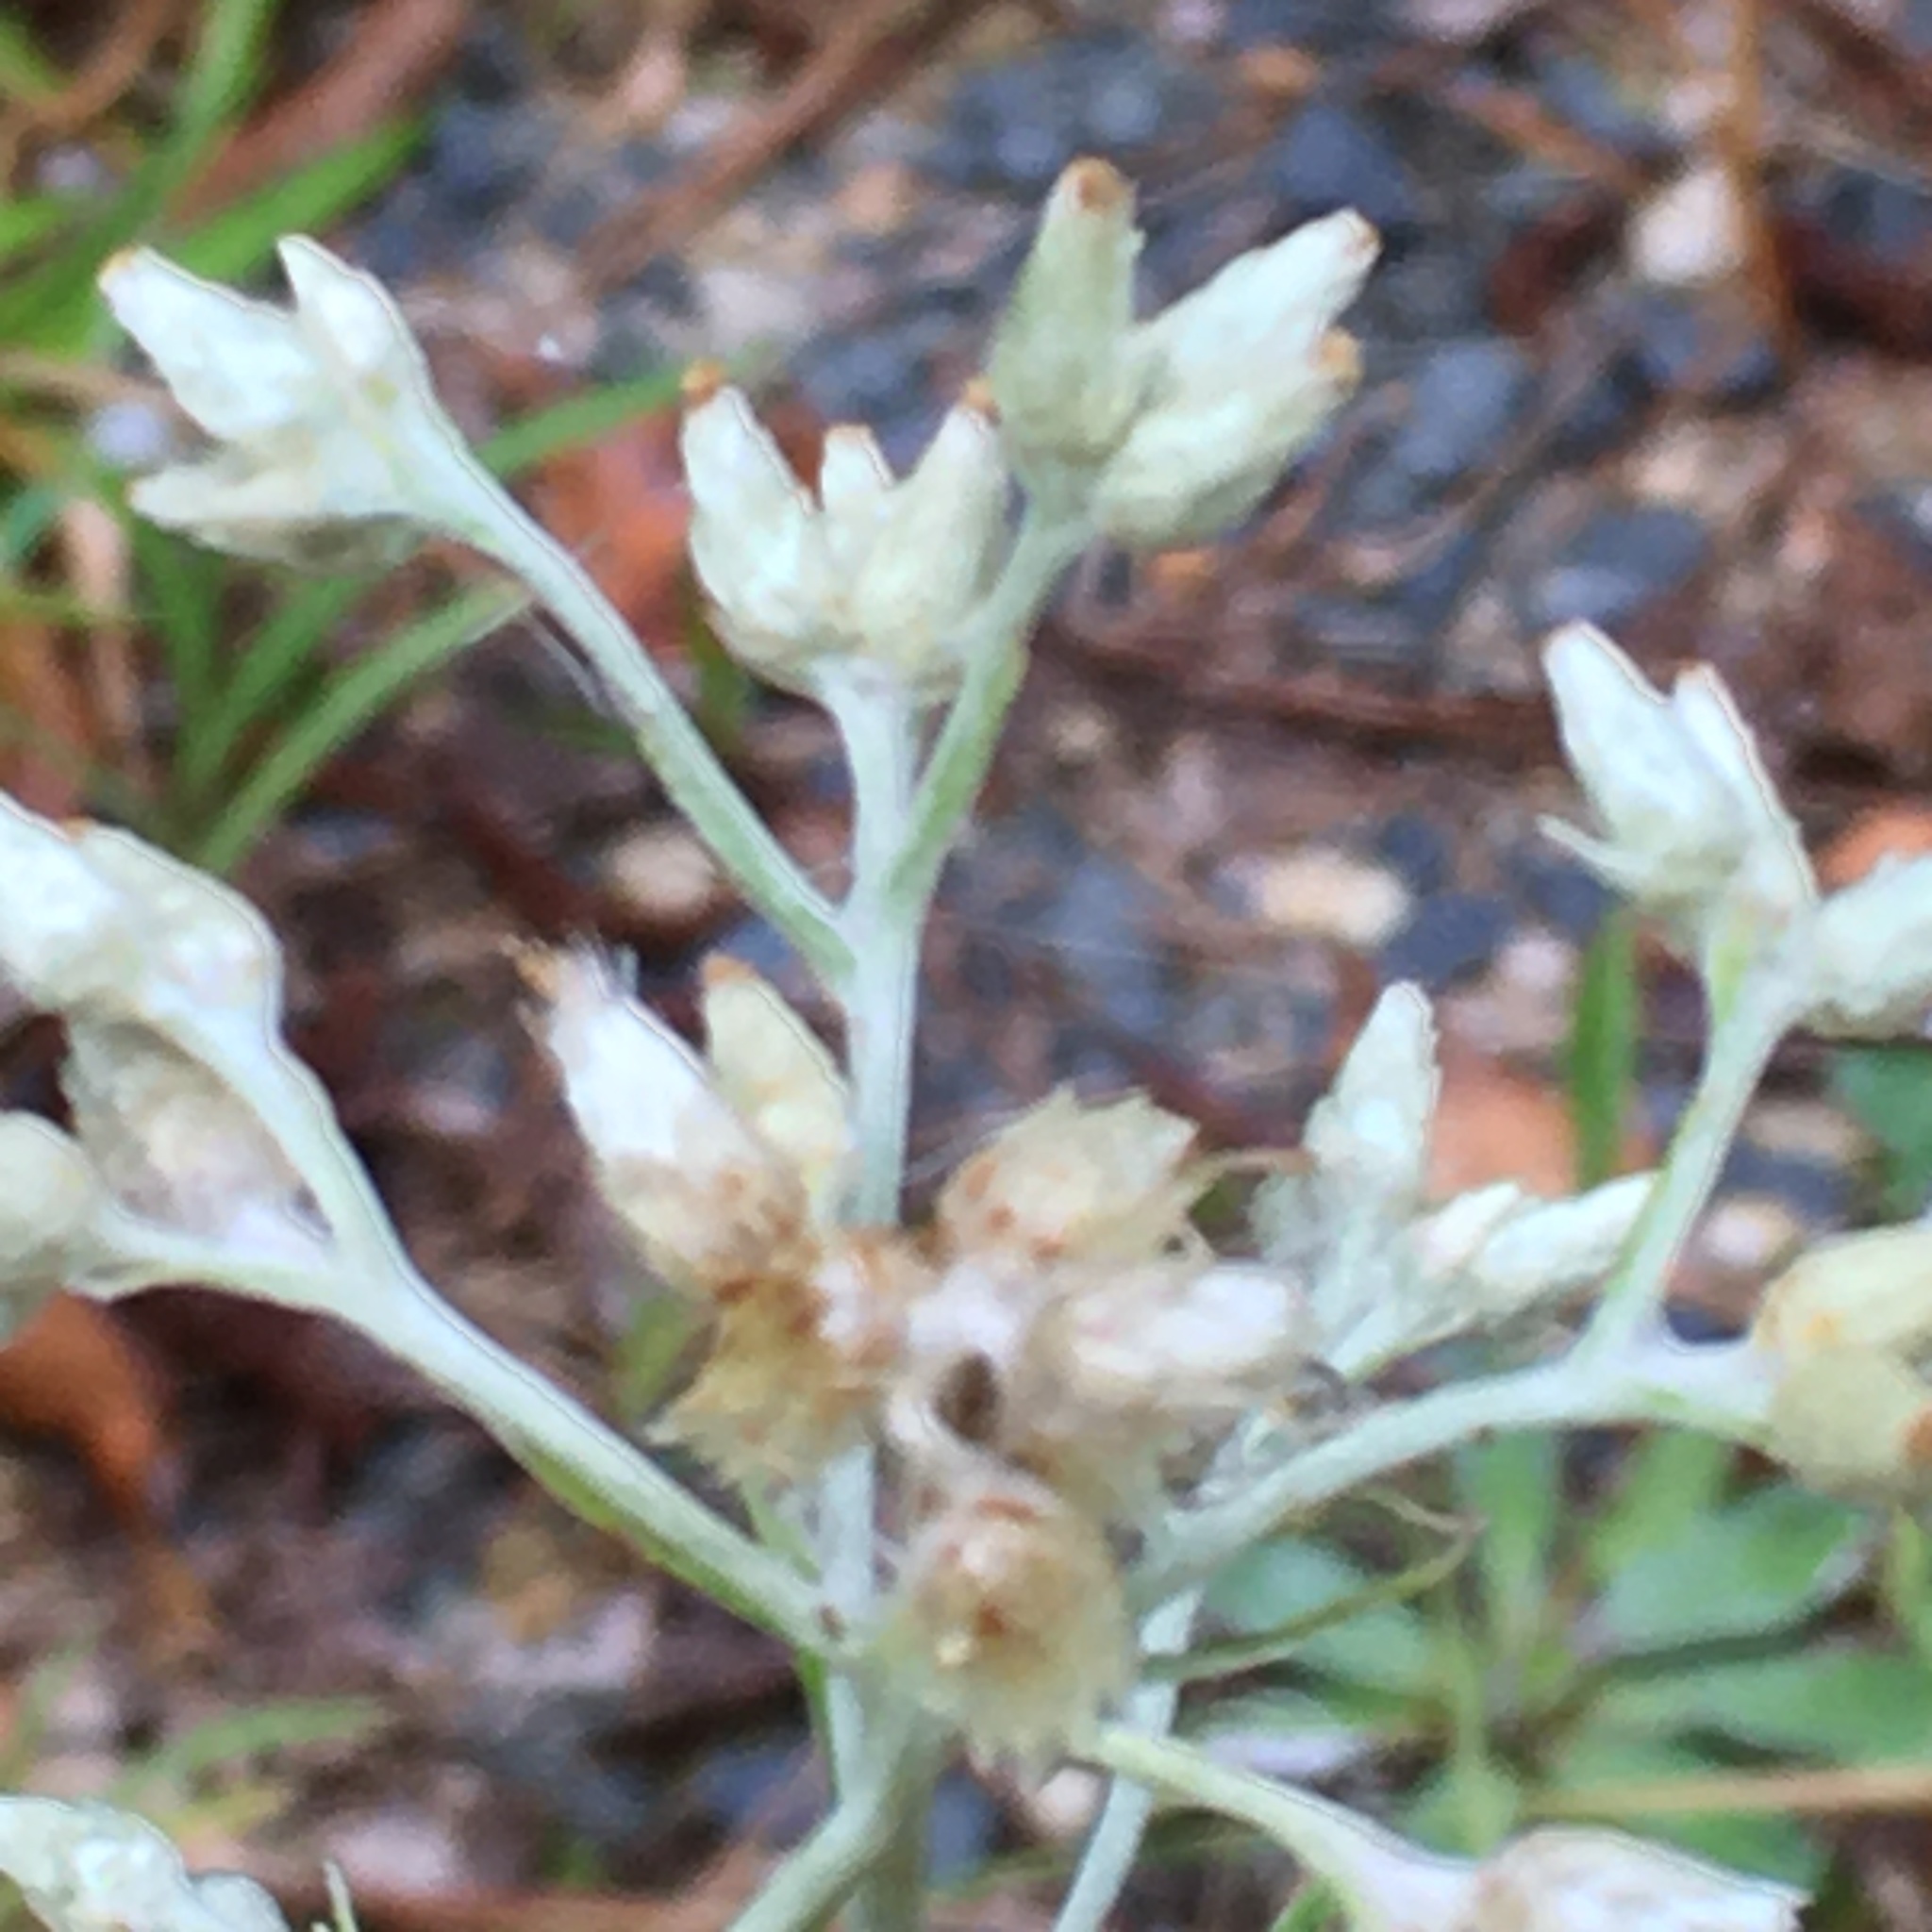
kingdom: Plantae
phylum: Tracheophyta
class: Magnoliopsida
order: Asterales
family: Asteraceae
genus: Pseudognaphalium
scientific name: Pseudognaphalium obtusifolium
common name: Eastern rabbit-tobacco
